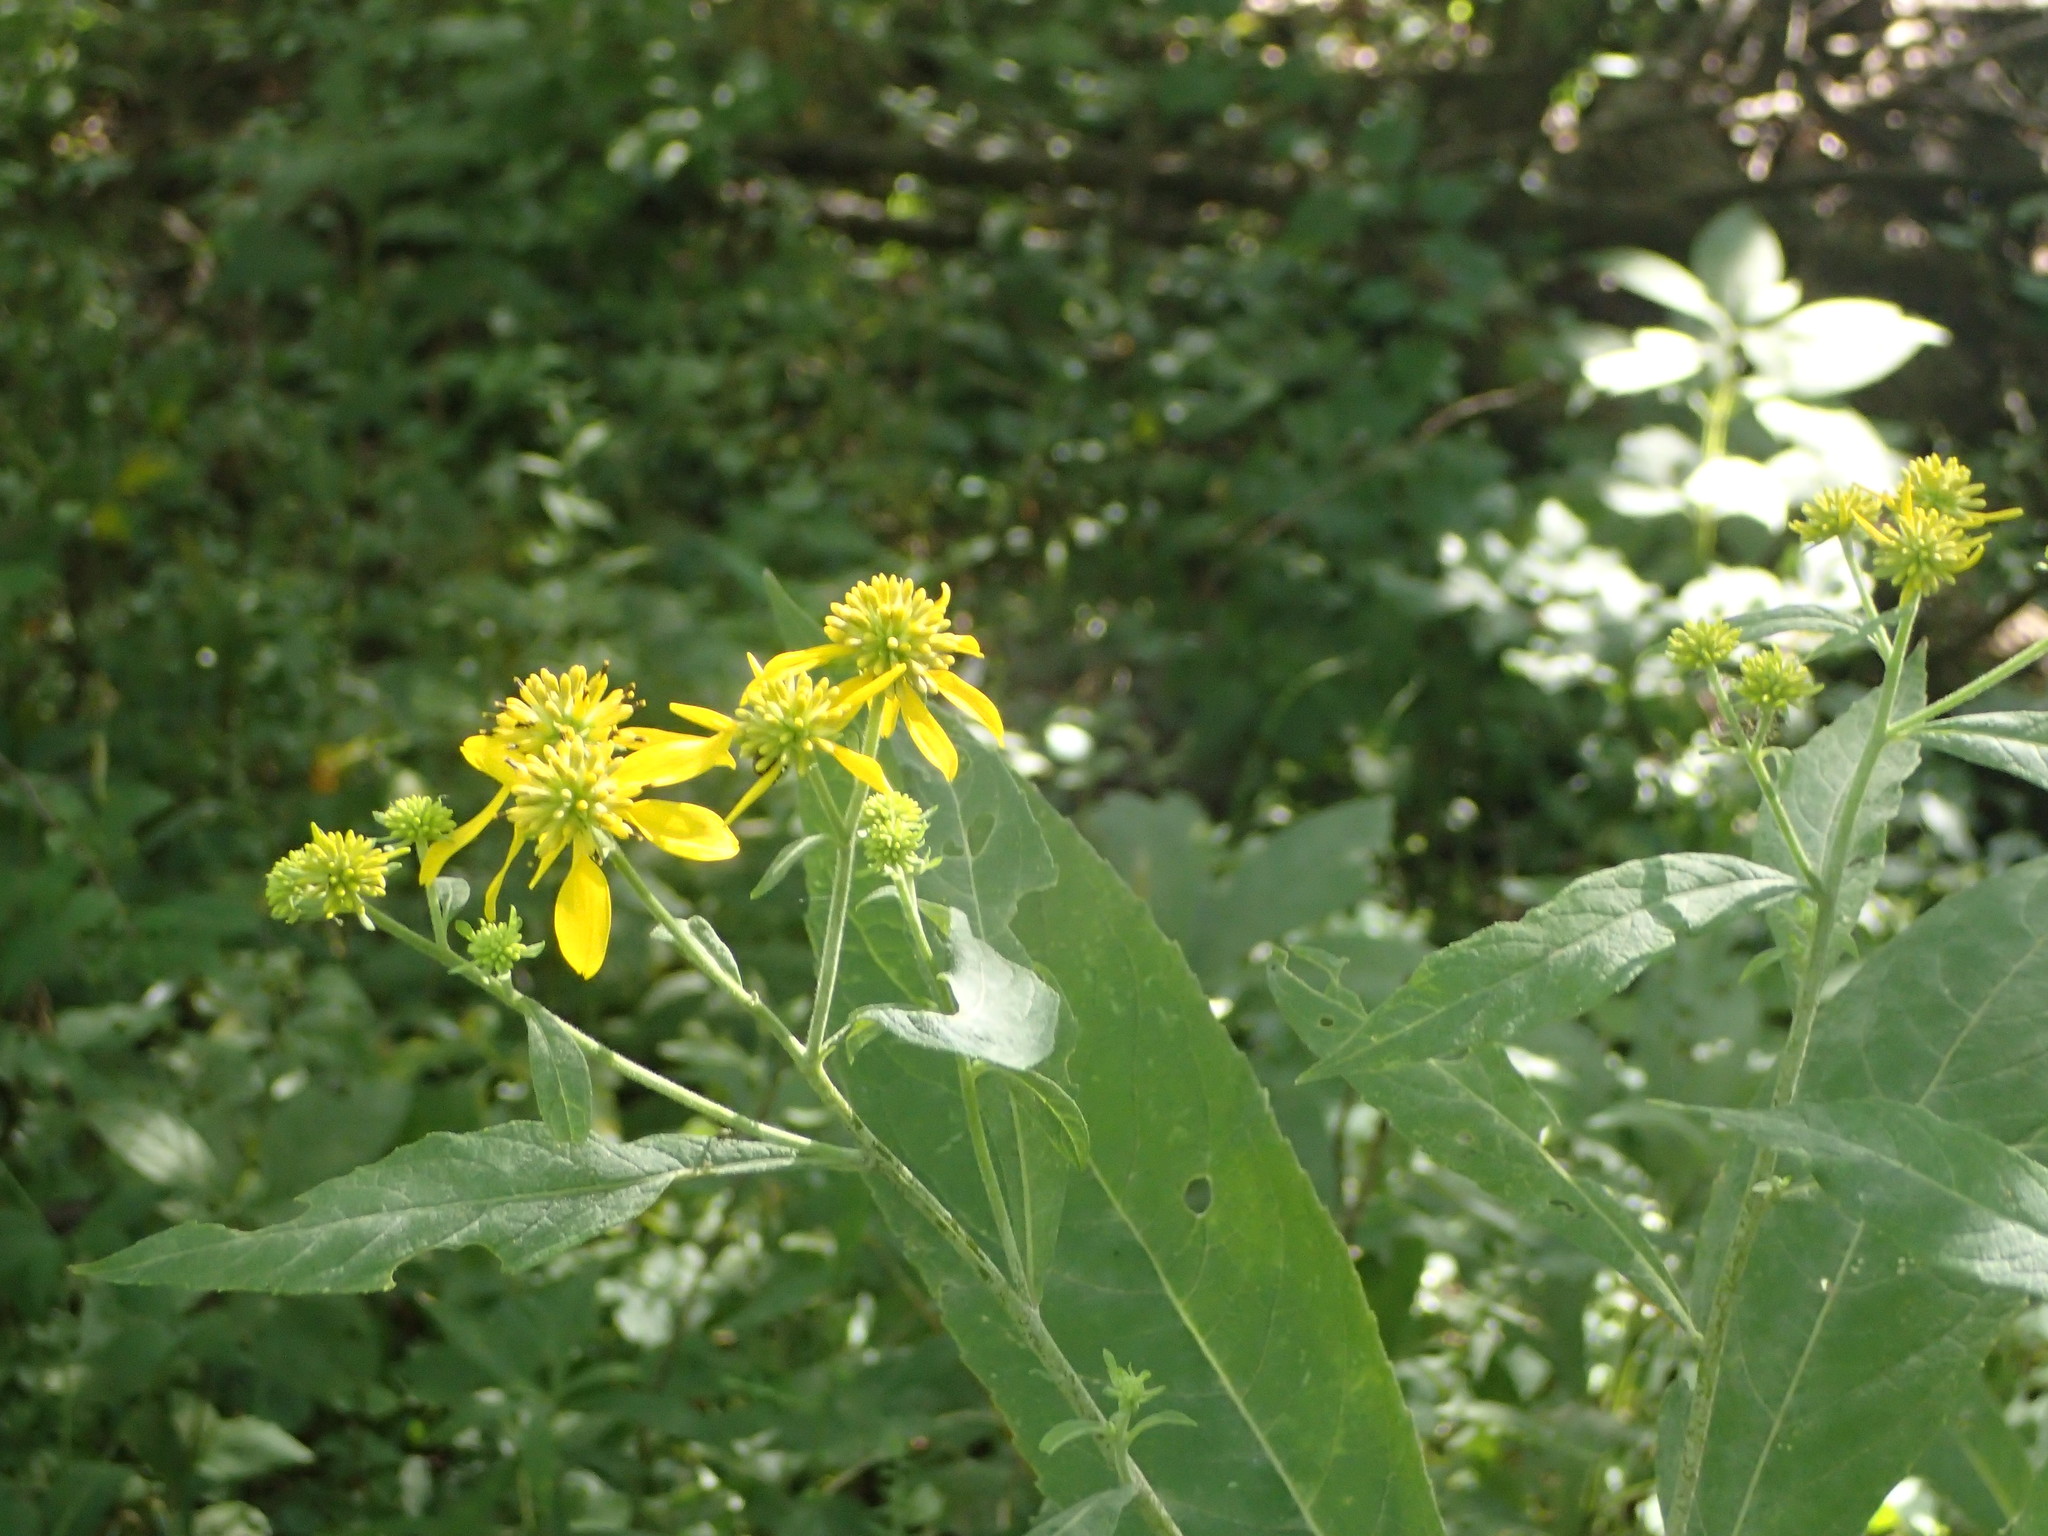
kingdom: Plantae
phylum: Tracheophyta
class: Magnoliopsida
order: Asterales
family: Asteraceae
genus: Verbesina
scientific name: Verbesina alternifolia
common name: Wingstem
